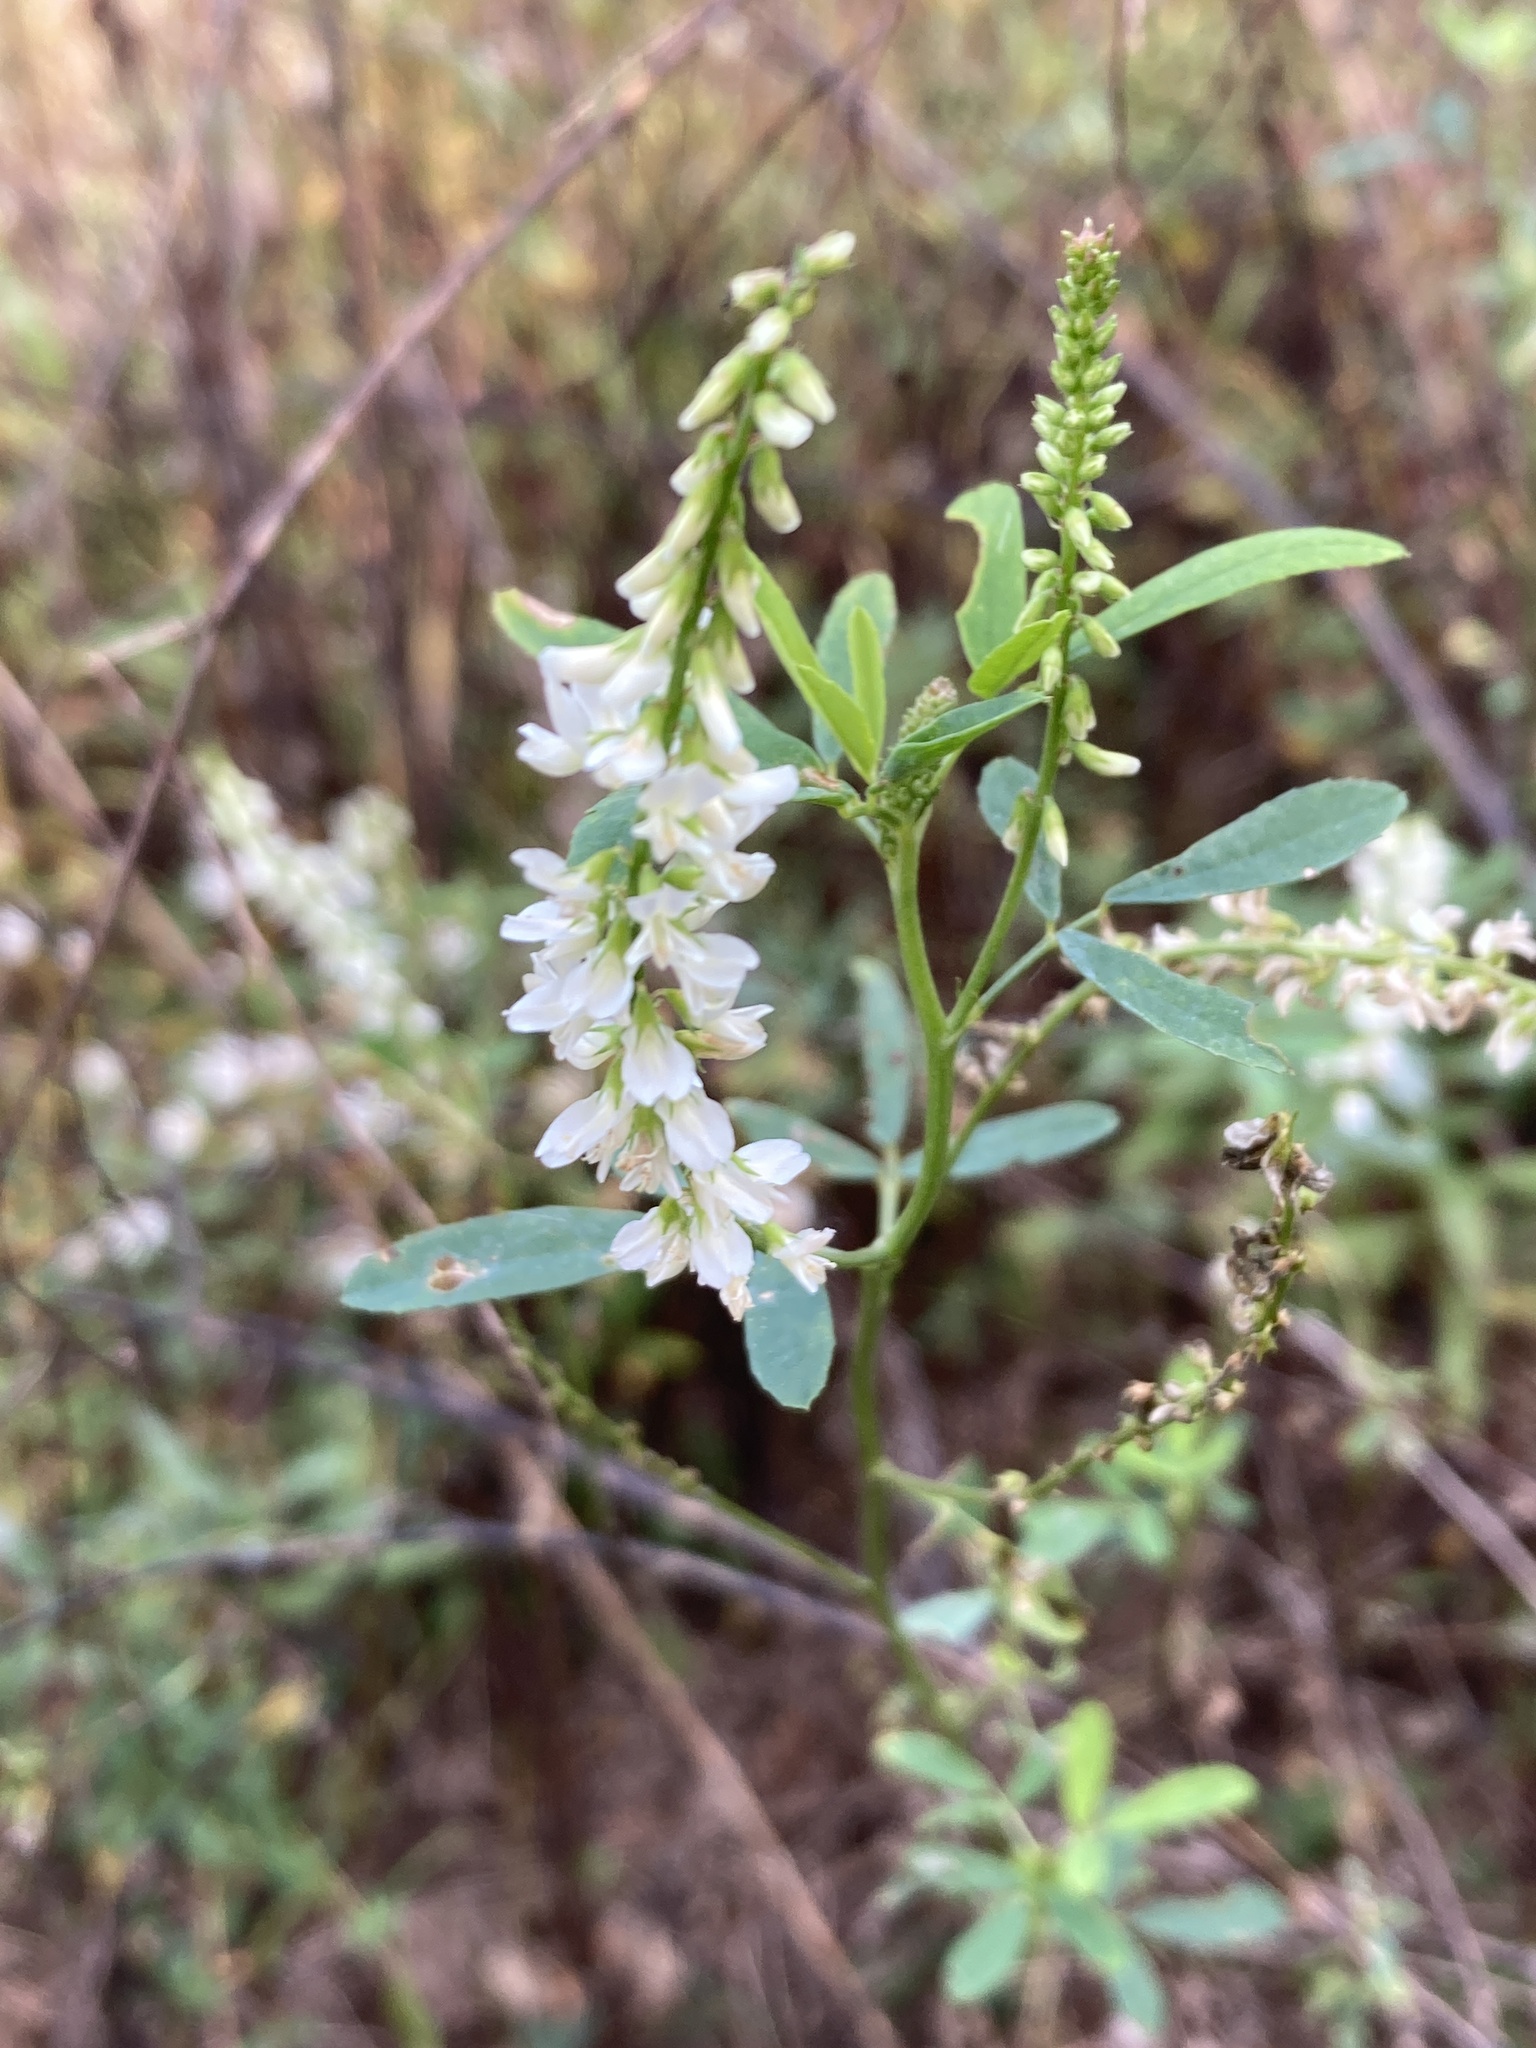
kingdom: Plantae
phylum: Tracheophyta
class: Magnoliopsida
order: Fabales
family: Fabaceae
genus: Melilotus
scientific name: Melilotus albus
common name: White melilot
